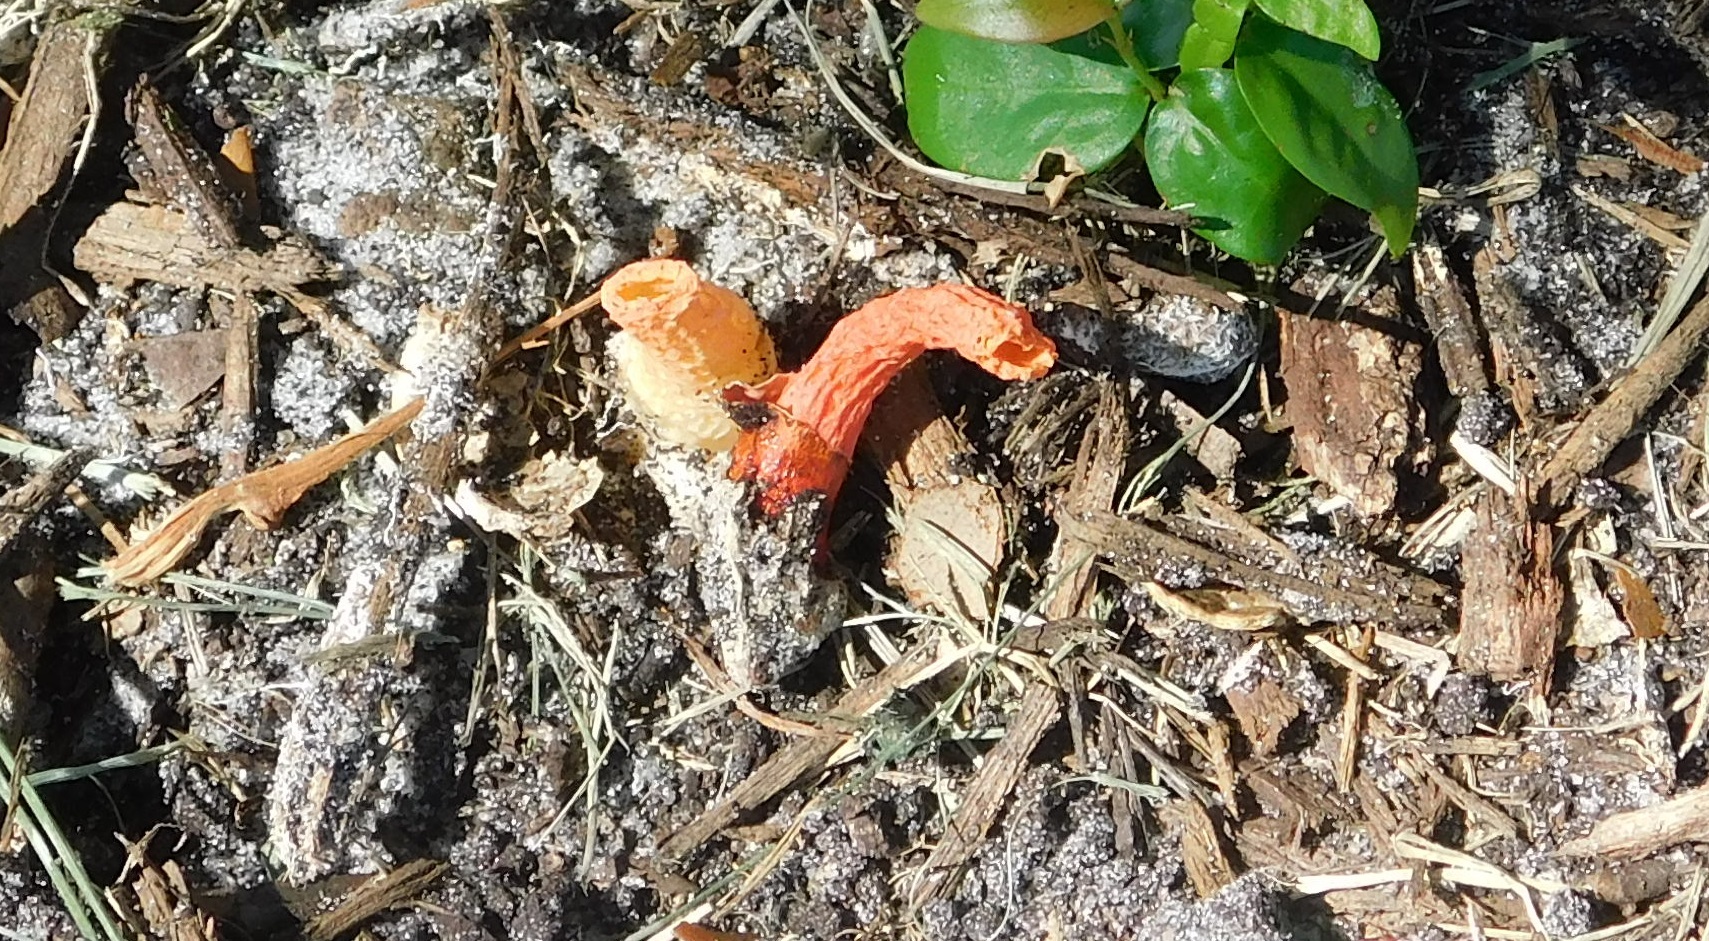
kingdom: Fungi
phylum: Basidiomycota
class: Agaricomycetes
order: Phallales
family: Phallaceae
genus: Phallus
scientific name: Phallus rugulosus
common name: Wrinkly stinkhorn
